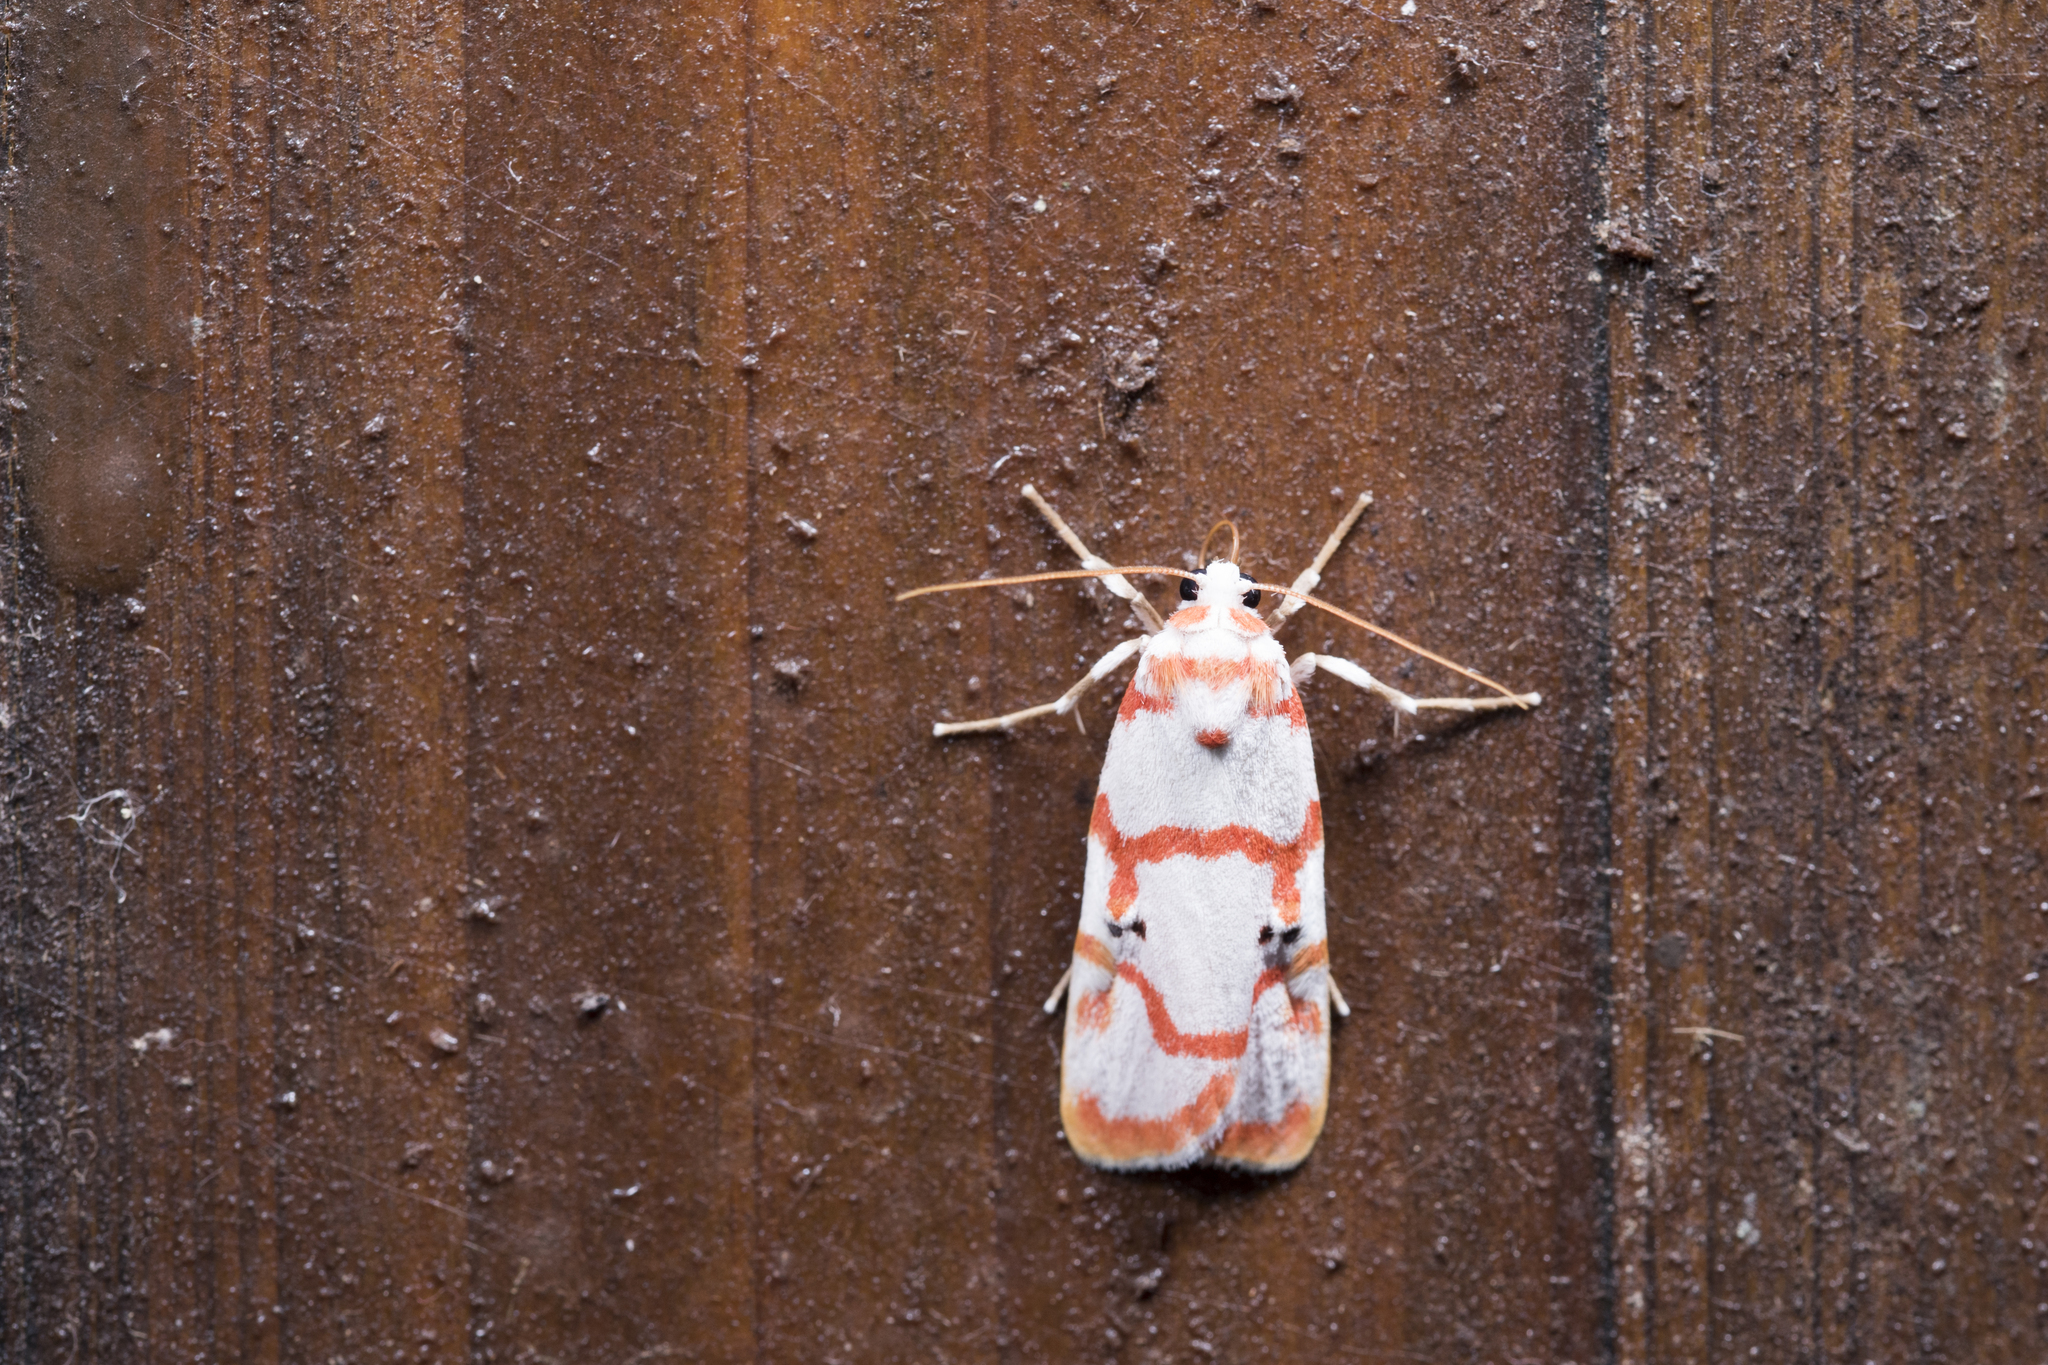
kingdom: Animalia
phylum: Arthropoda
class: Insecta
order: Lepidoptera
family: Erebidae
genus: Cyana
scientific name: Cyana hamata
